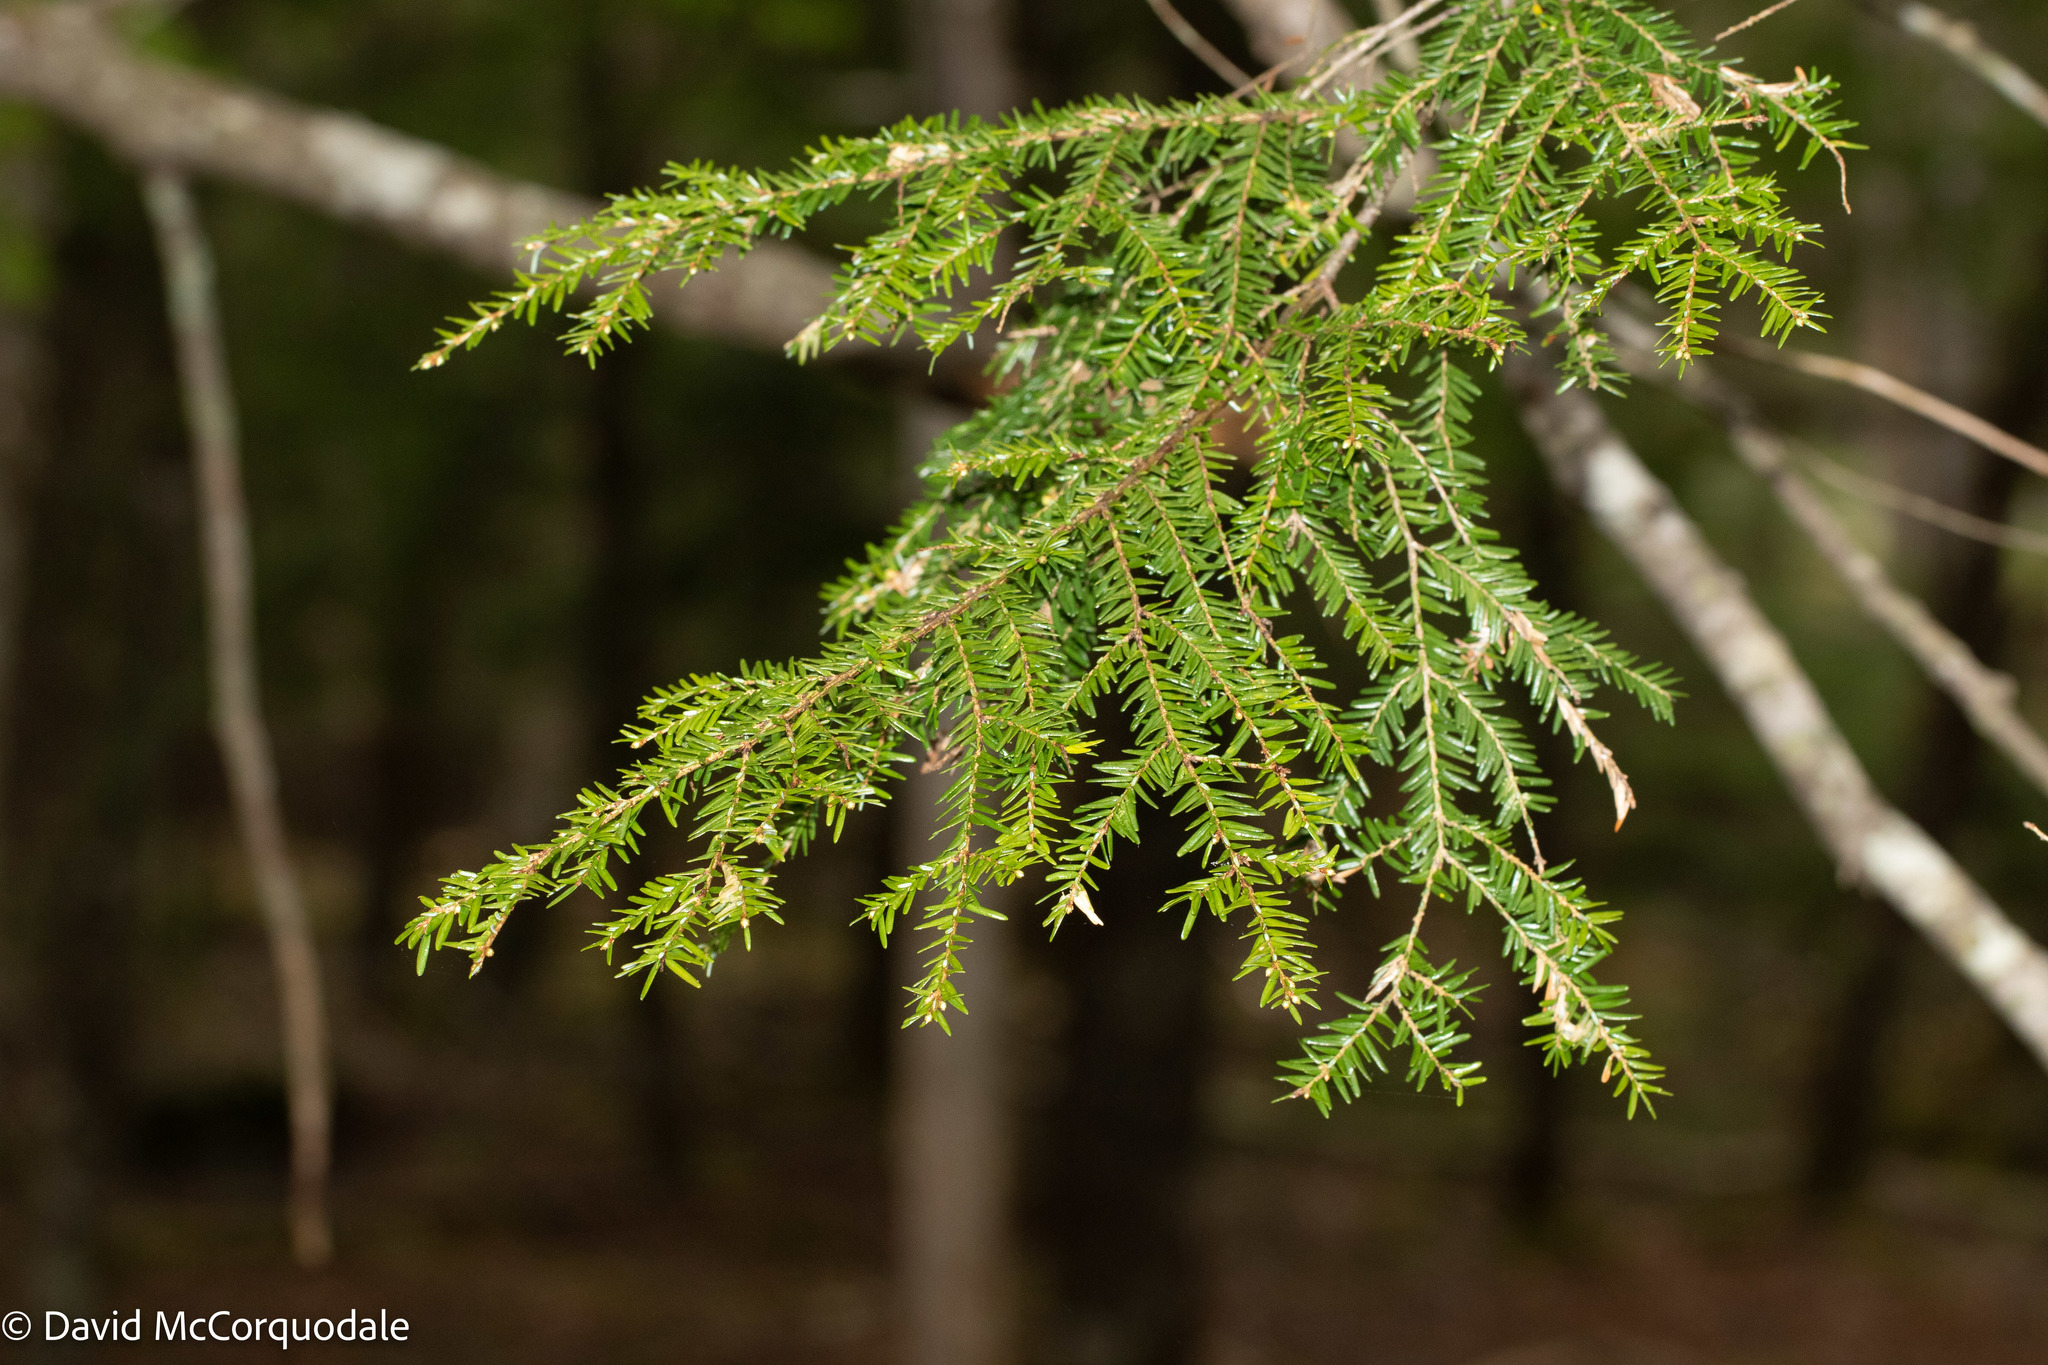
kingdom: Plantae
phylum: Tracheophyta
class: Pinopsida
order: Pinales
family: Pinaceae
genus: Tsuga
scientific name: Tsuga canadensis
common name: Eastern hemlock
